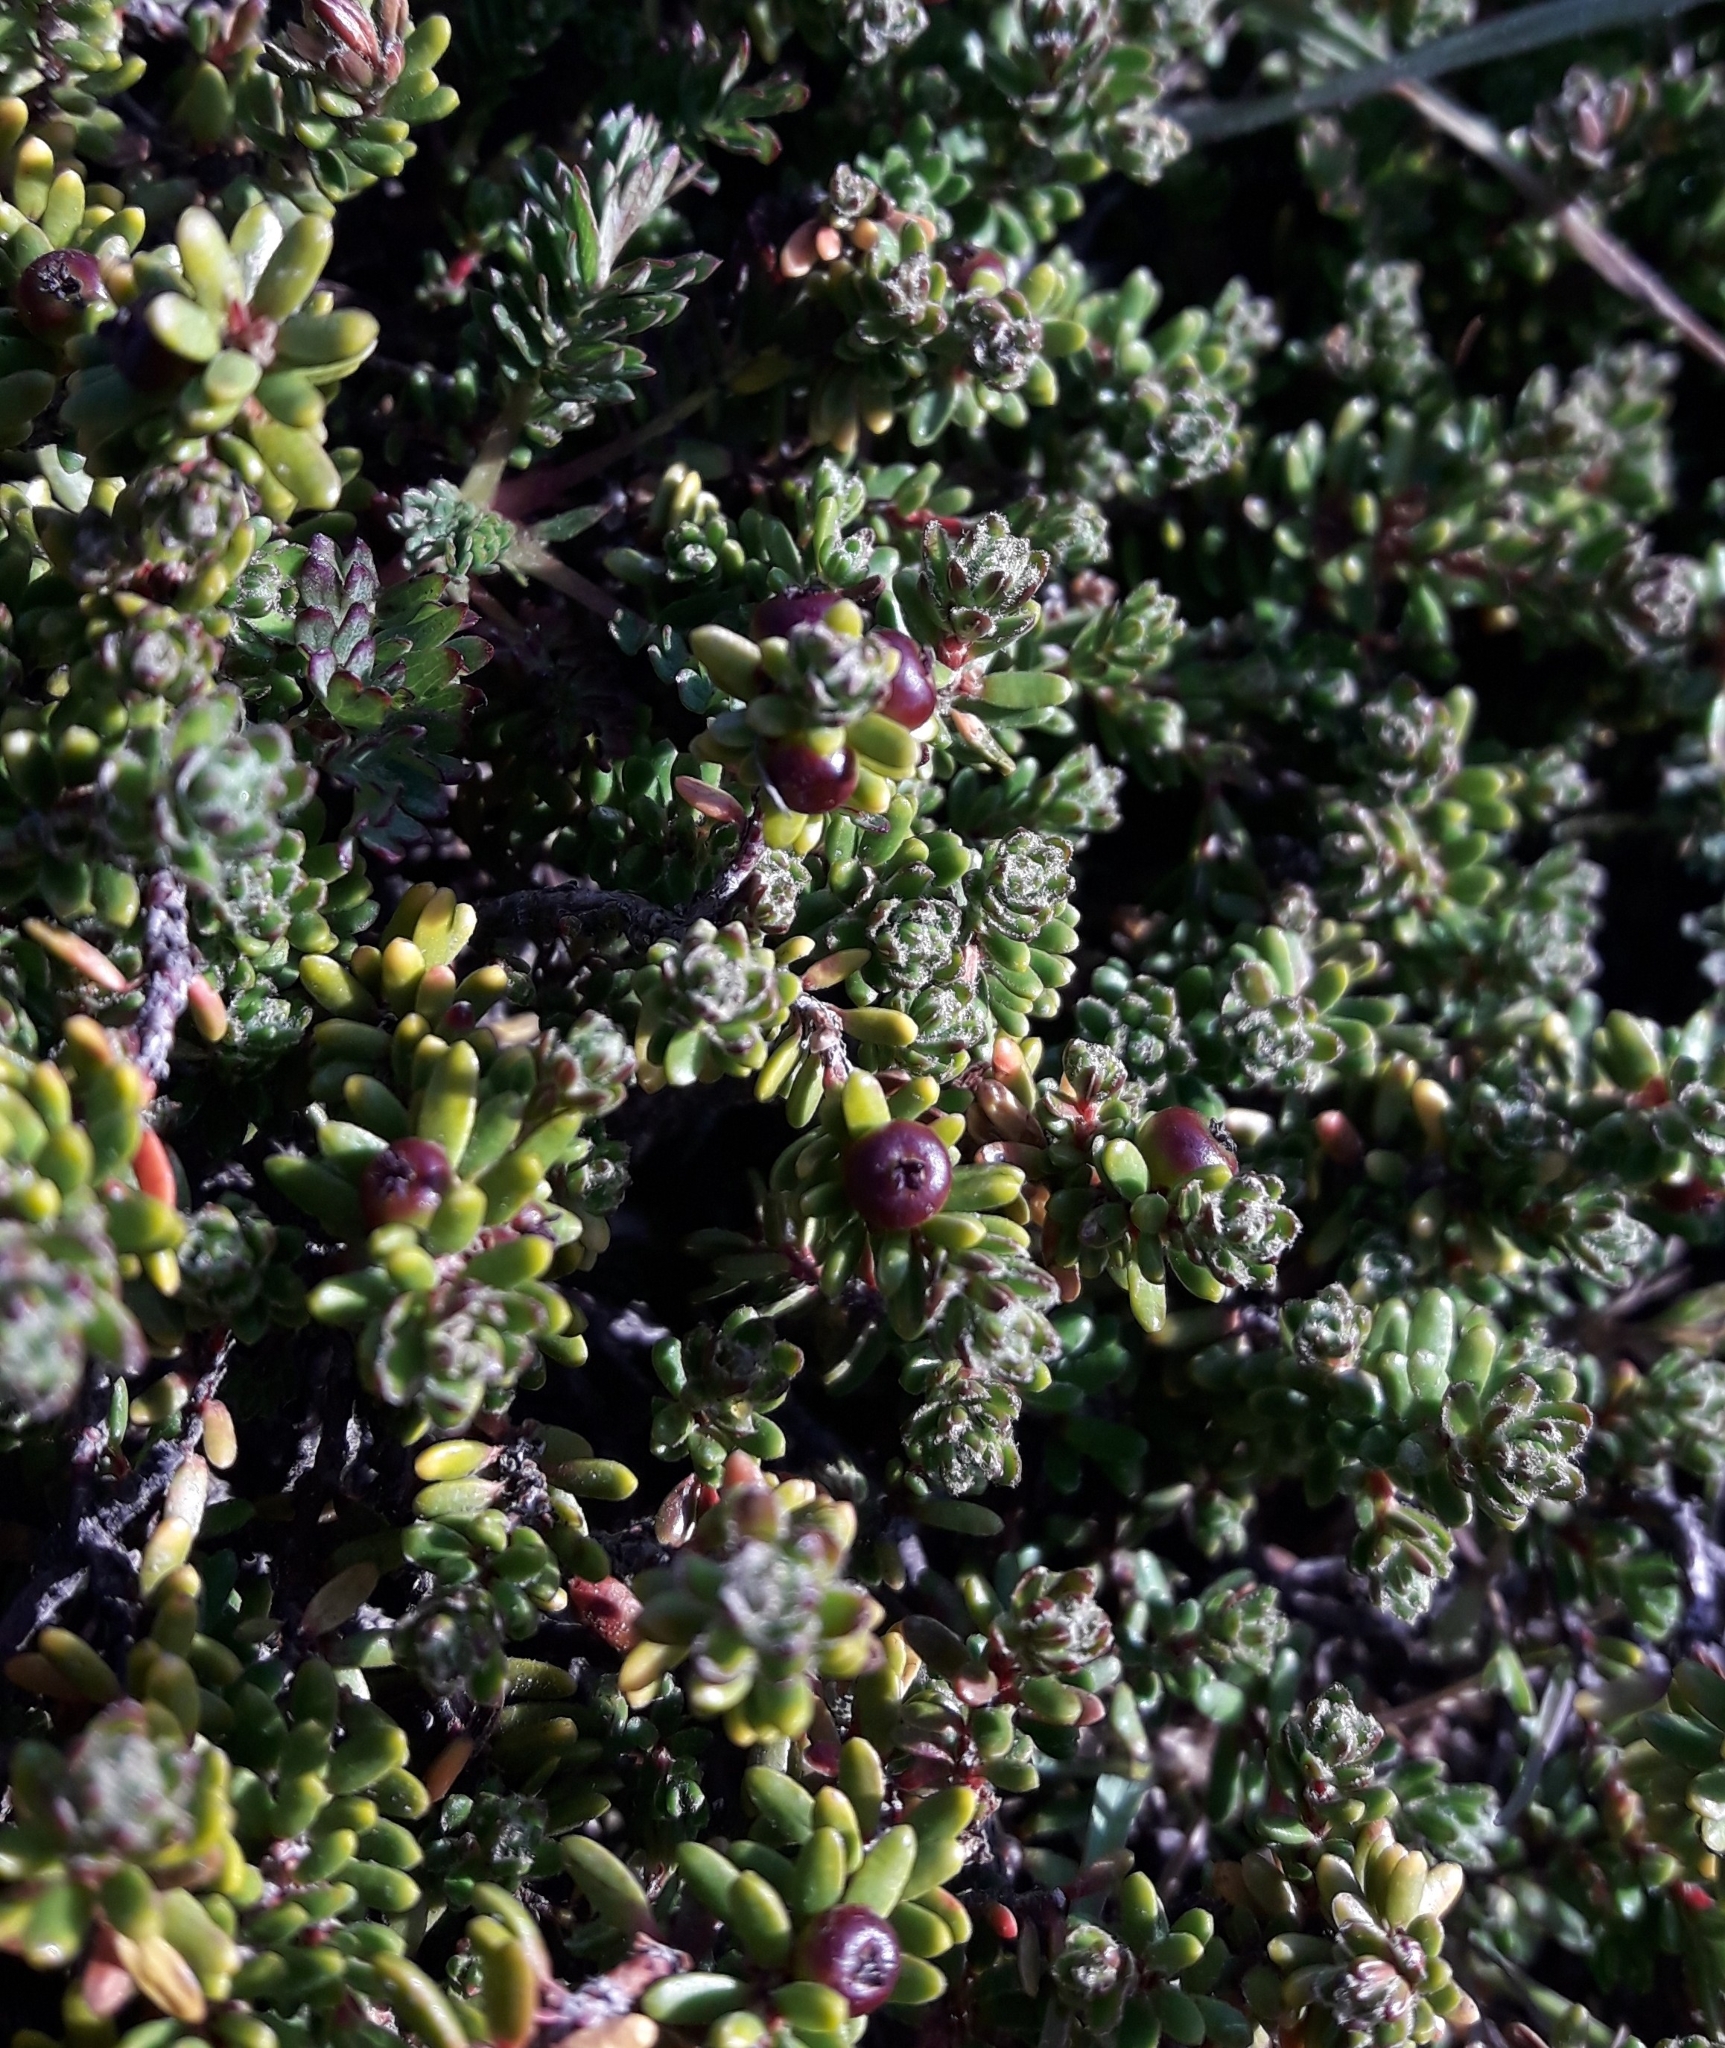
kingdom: Plantae
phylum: Tracheophyta
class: Magnoliopsida
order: Ericales
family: Ericaceae
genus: Empetrum
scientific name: Empetrum rubrum
